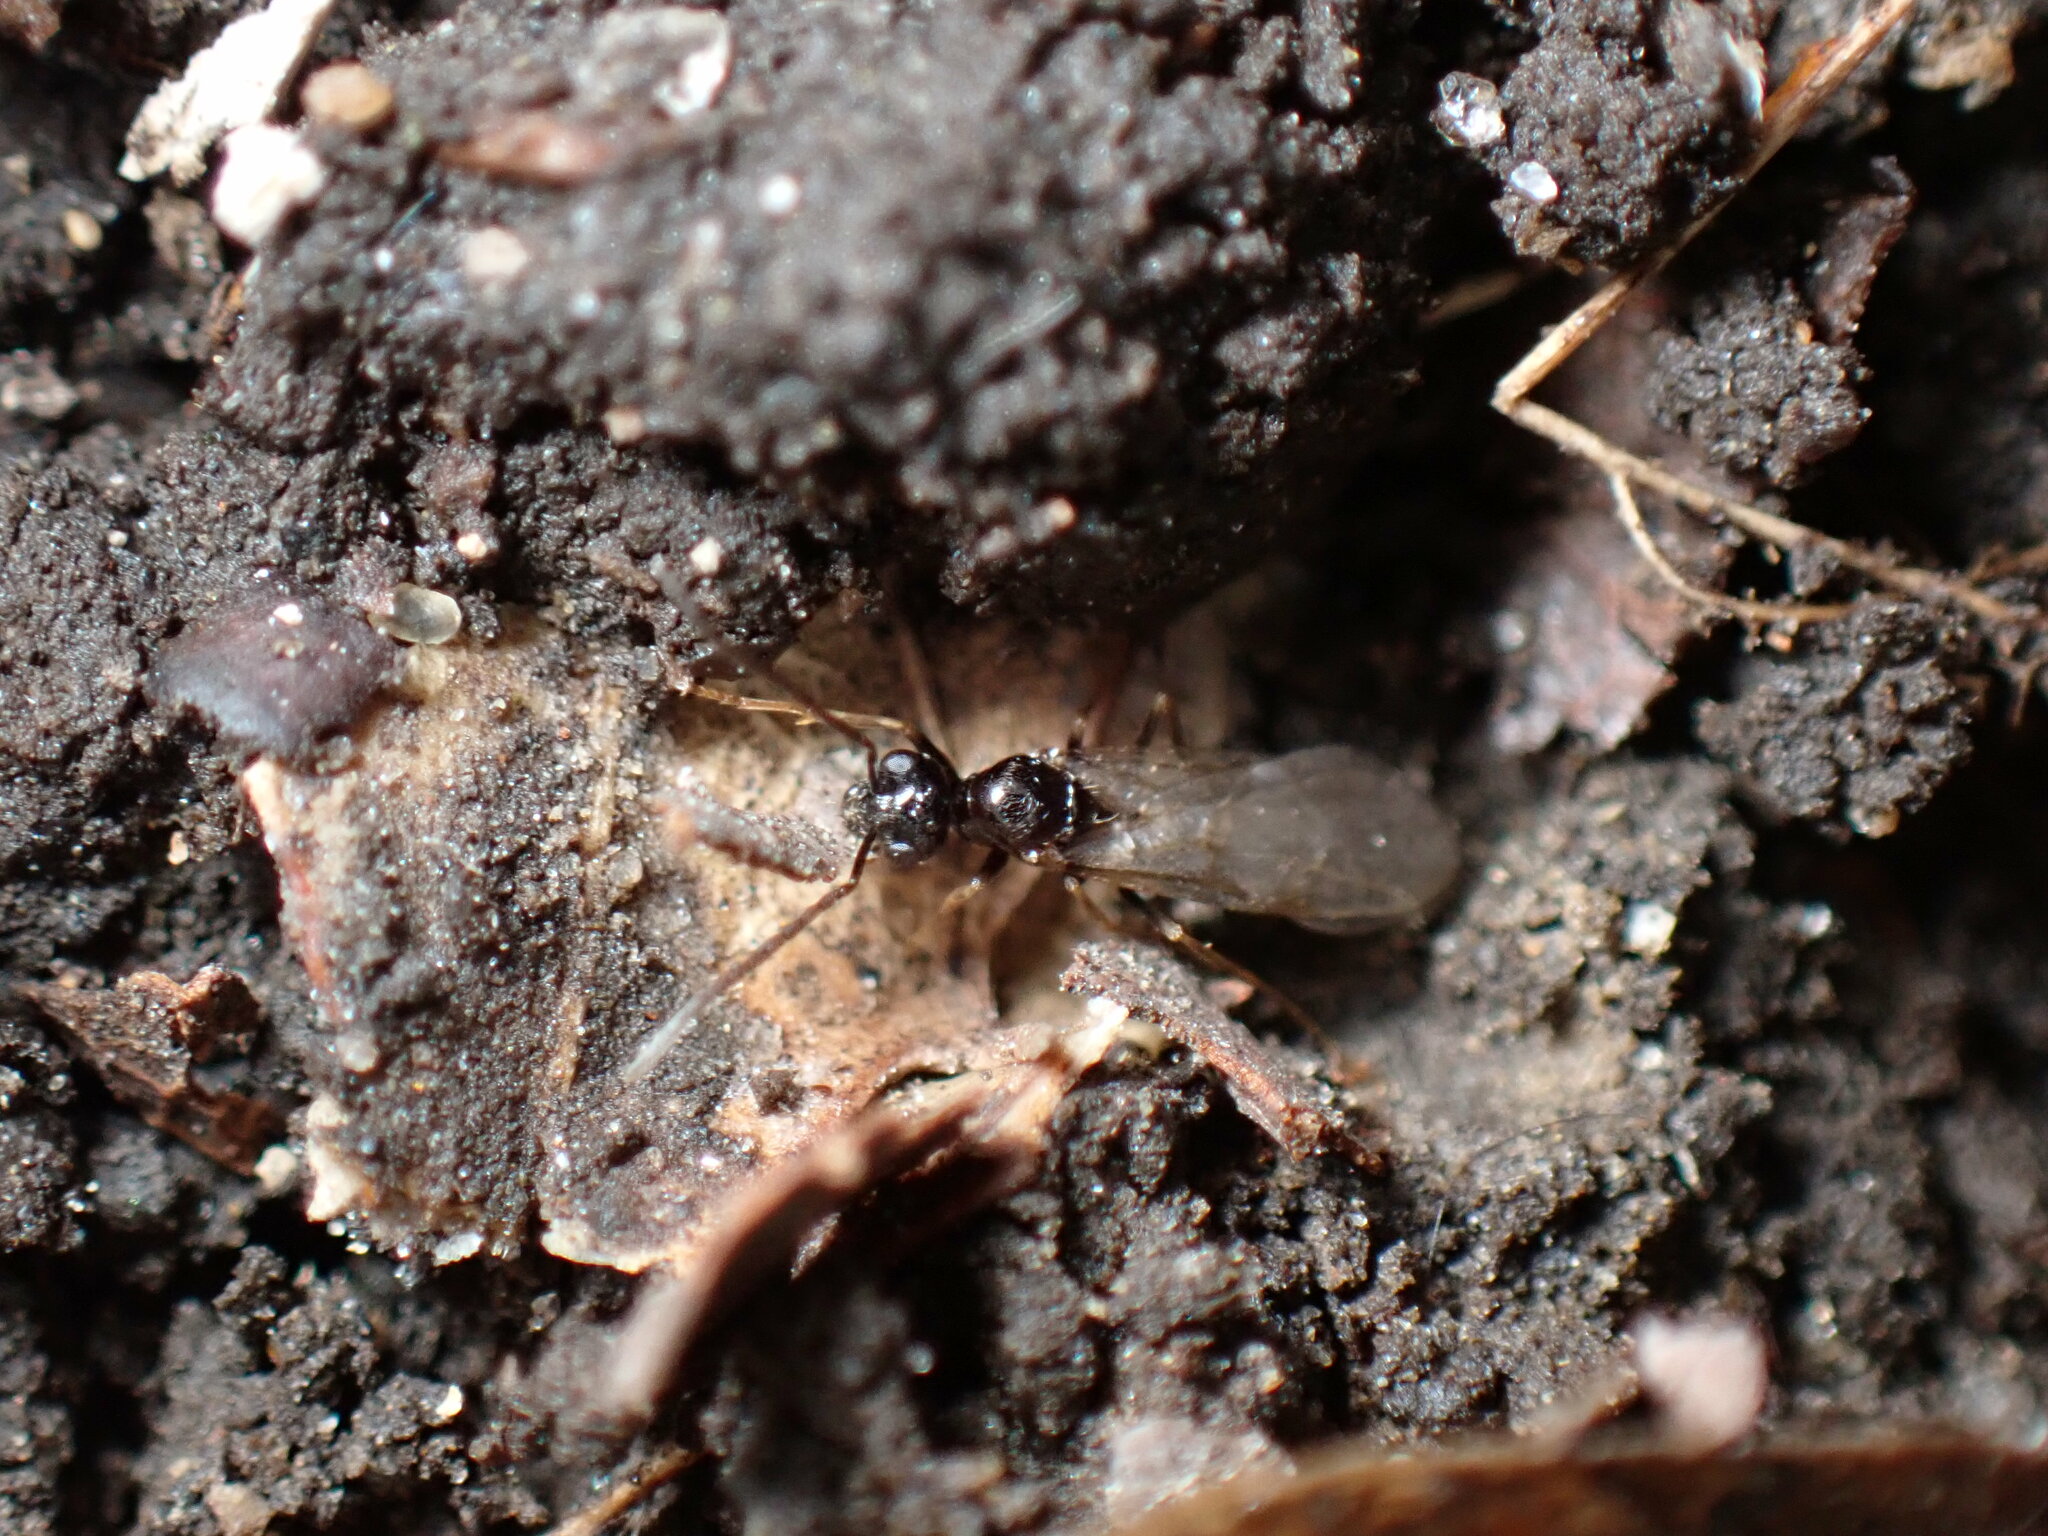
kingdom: Animalia
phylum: Arthropoda
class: Insecta
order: Hymenoptera
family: Formicidae
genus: Prenolepis
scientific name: Prenolepis imparis
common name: Small honey ant
